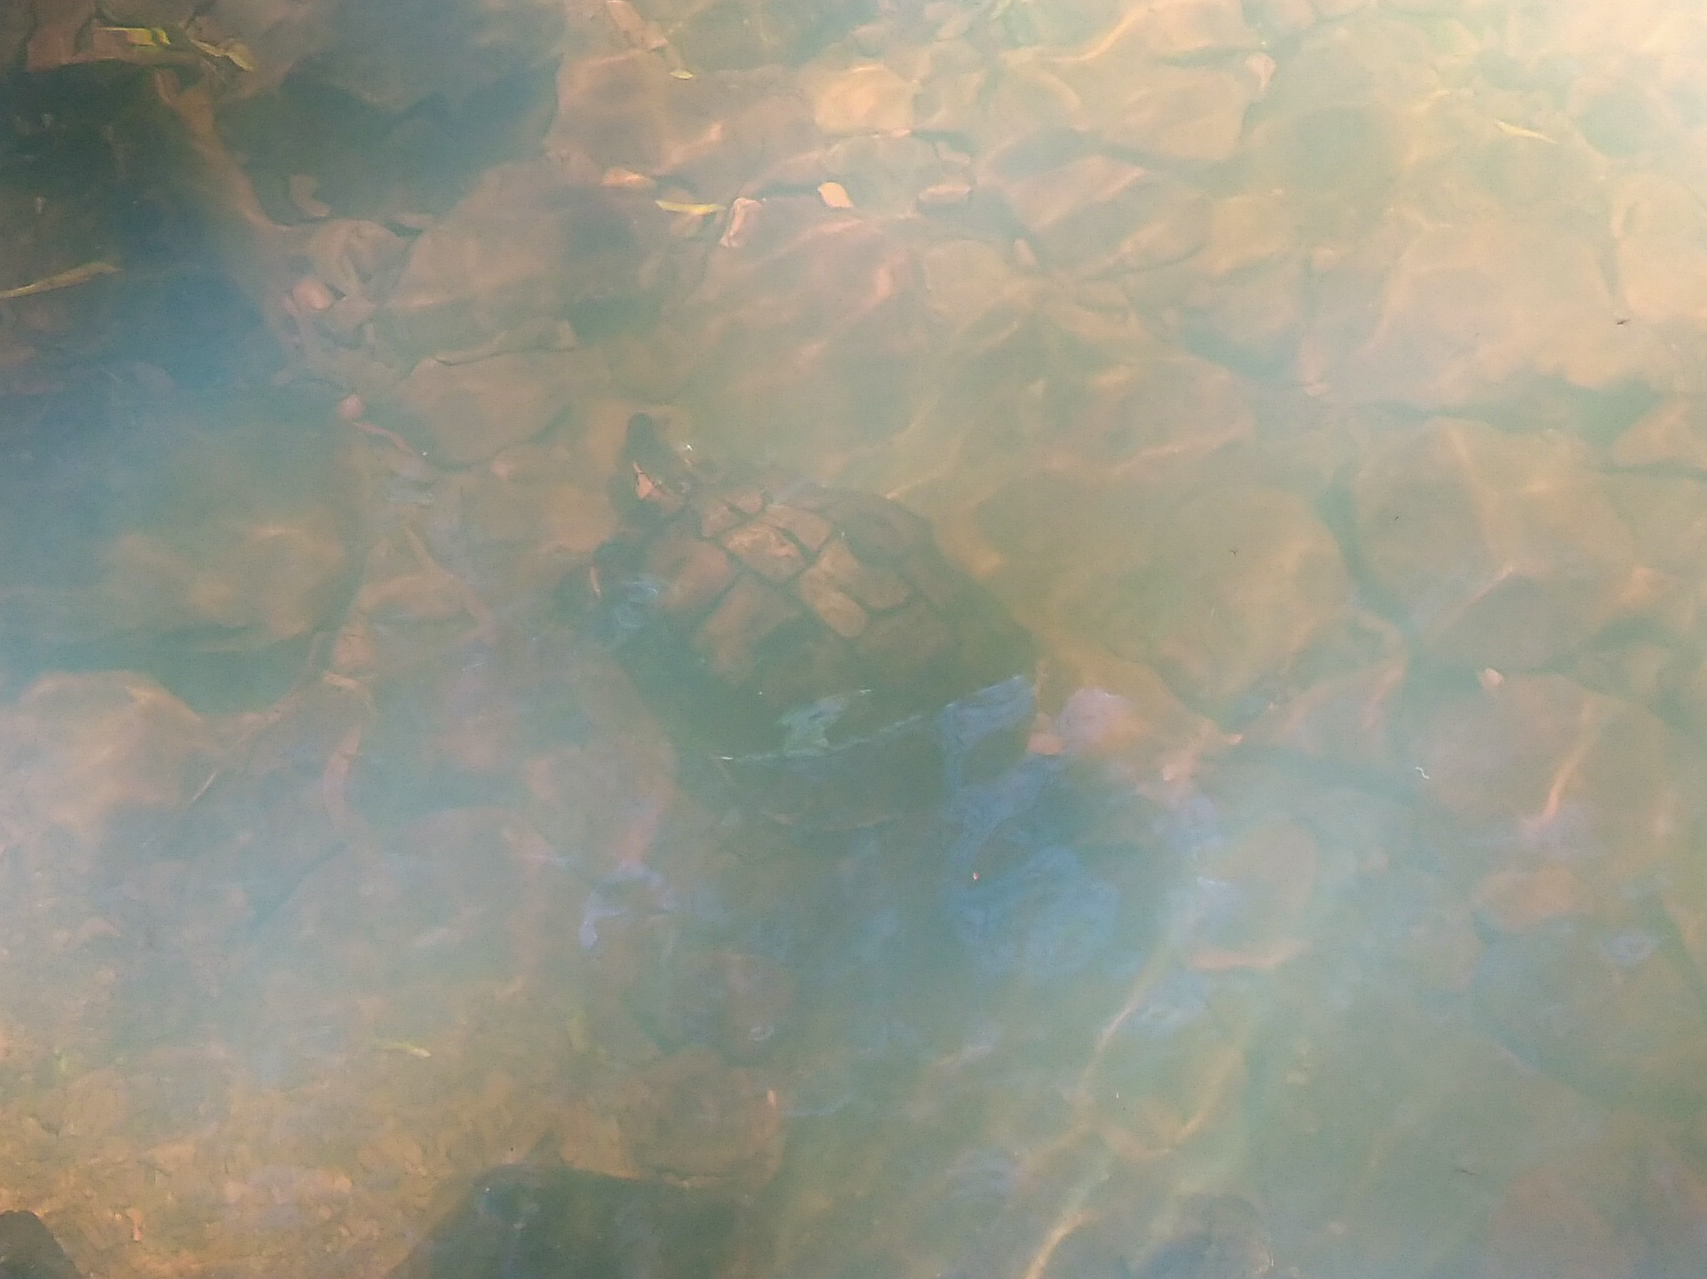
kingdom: Animalia
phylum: Chordata
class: Testudines
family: Emydidae
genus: Trachemys
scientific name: Trachemys dorbigni
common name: Black-bellied slider
